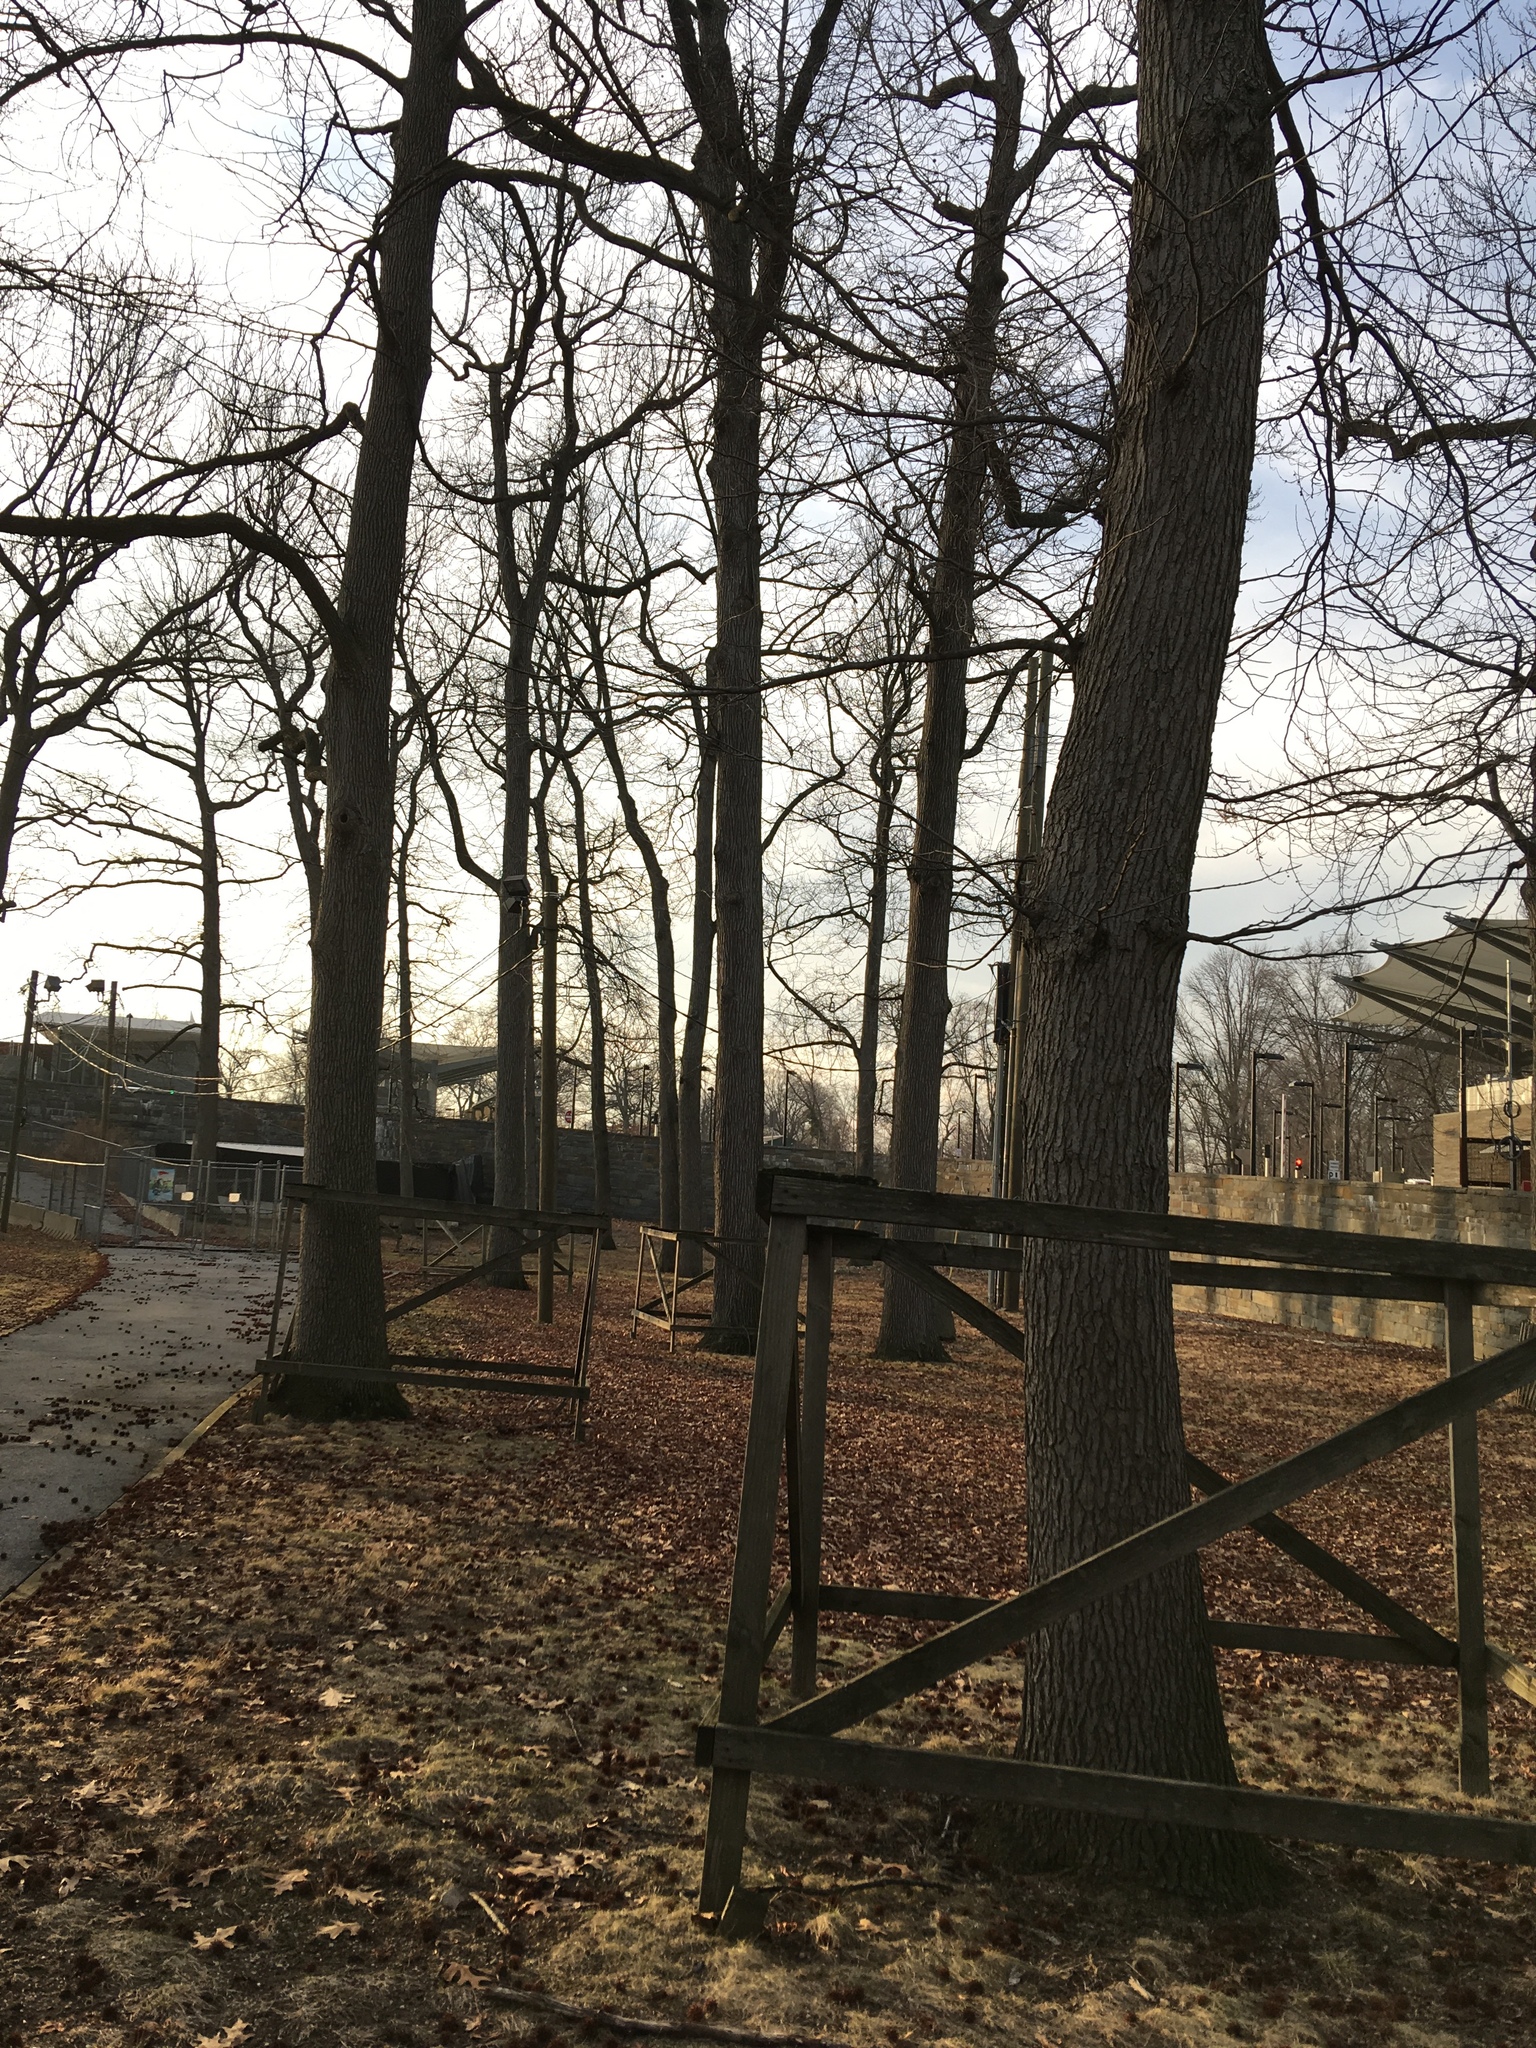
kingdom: Plantae
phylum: Tracheophyta
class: Magnoliopsida
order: Saxifragales
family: Altingiaceae
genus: Liquidambar
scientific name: Liquidambar styraciflua
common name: Sweet gum
